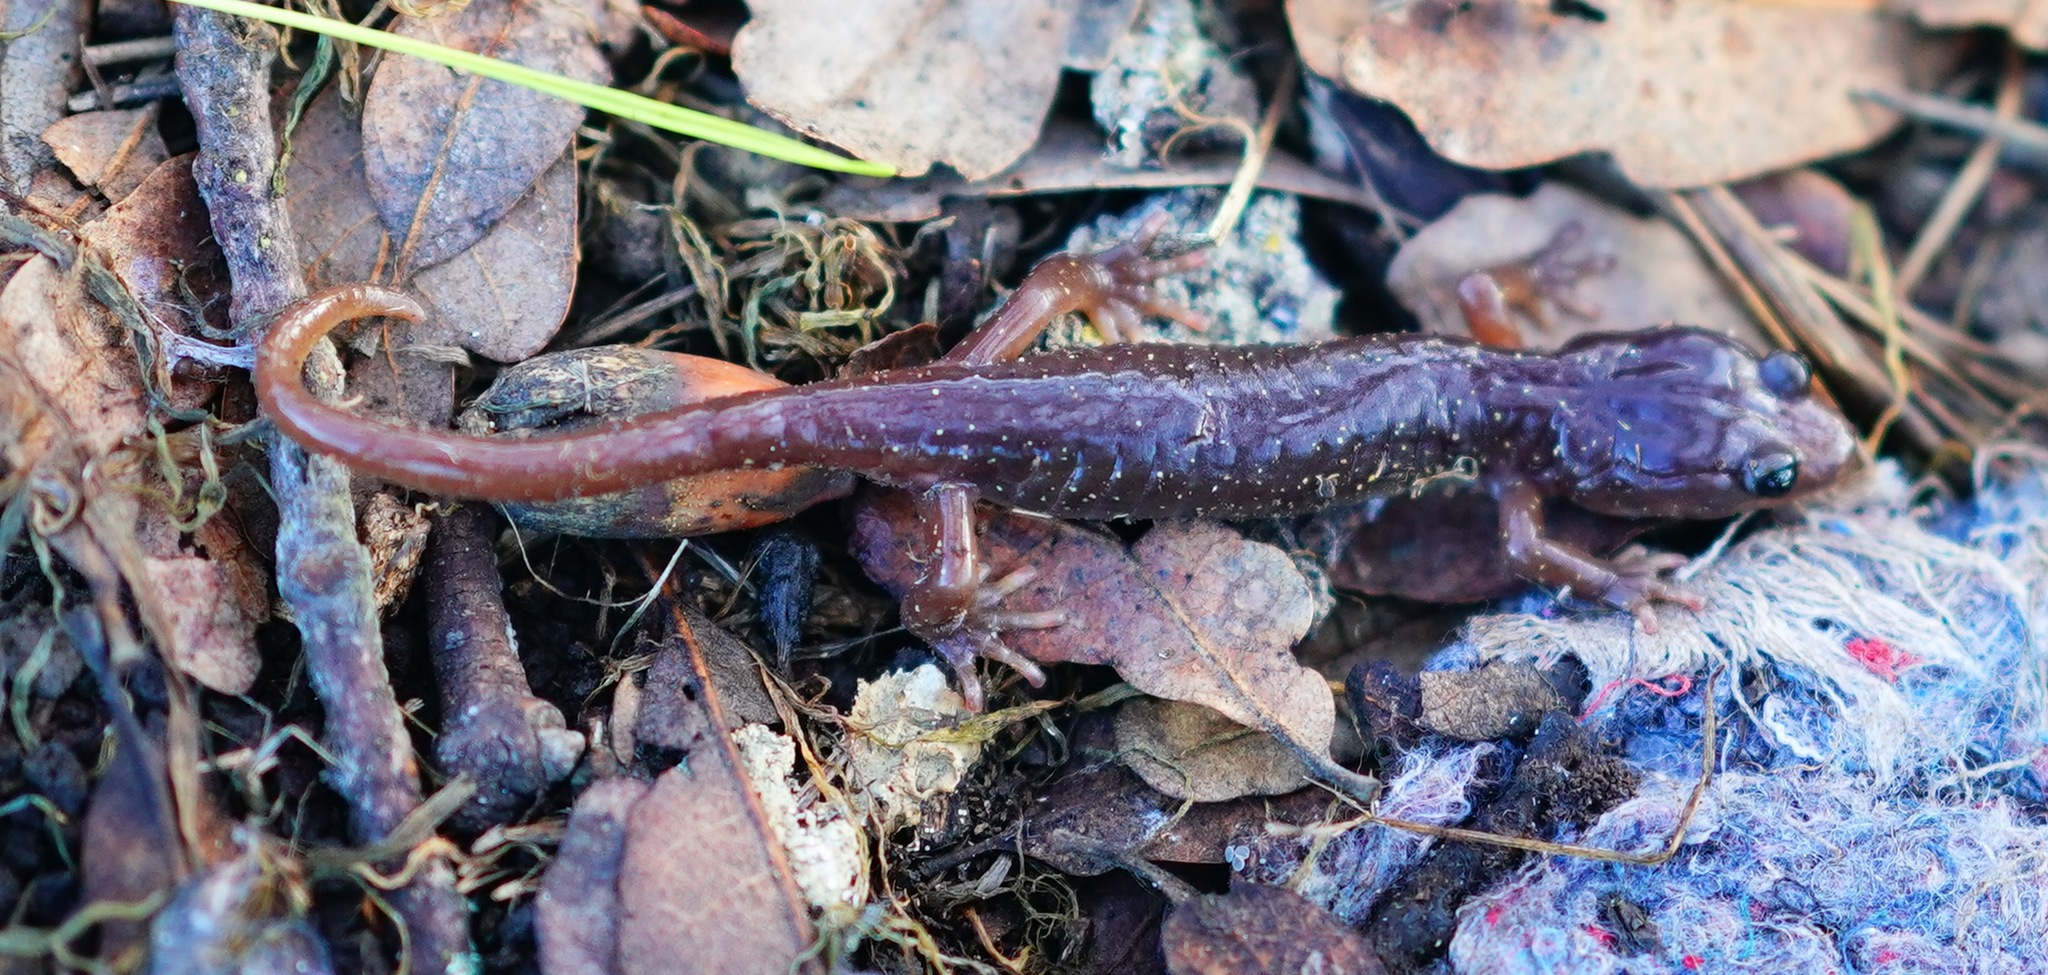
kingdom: Animalia
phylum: Chordata
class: Amphibia
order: Caudata
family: Plethodontidae
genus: Aneides
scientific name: Aneides lugubris
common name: Arboreal salamander
